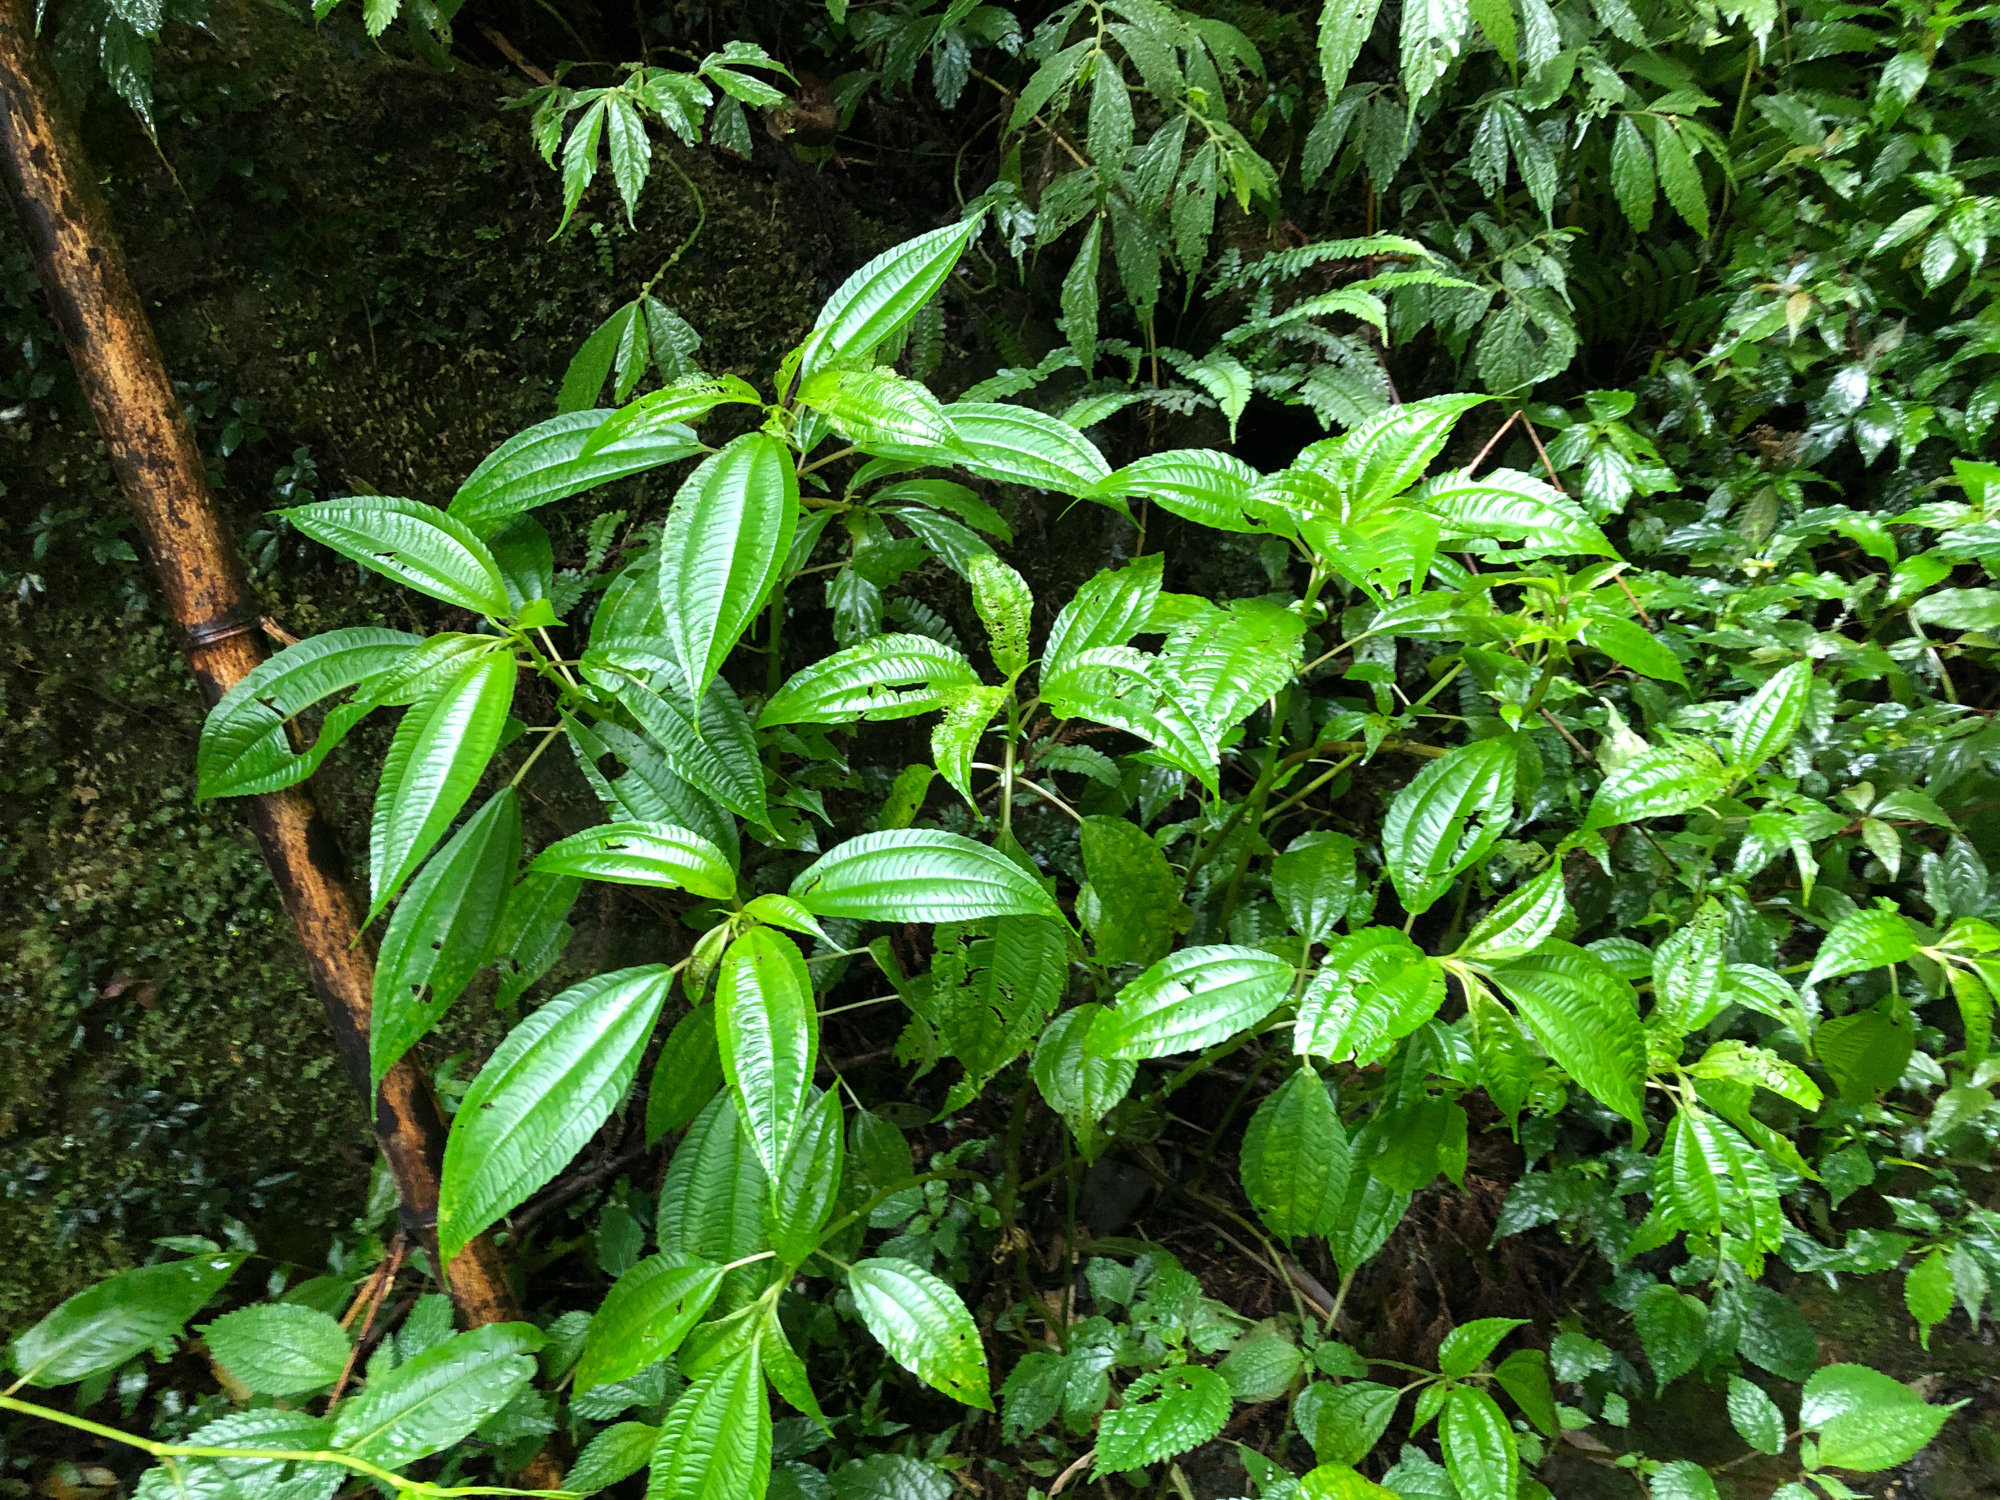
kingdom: Plantae
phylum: Tracheophyta
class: Magnoliopsida
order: Rosales
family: Urticaceae
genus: Pilea
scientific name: Pilea melastomoides
